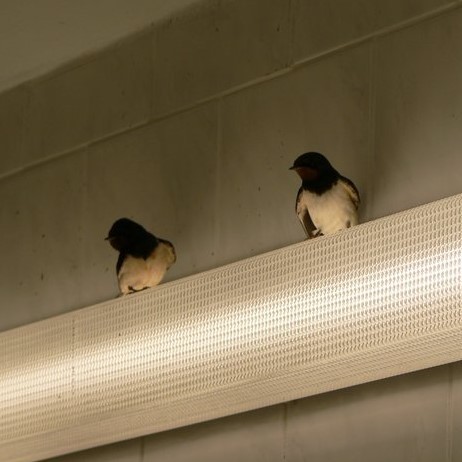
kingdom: Animalia
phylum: Chordata
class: Aves
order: Passeriformes
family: Hirundinidae
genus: Hirundo
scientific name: Hirundo rustica
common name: Barn swallow
